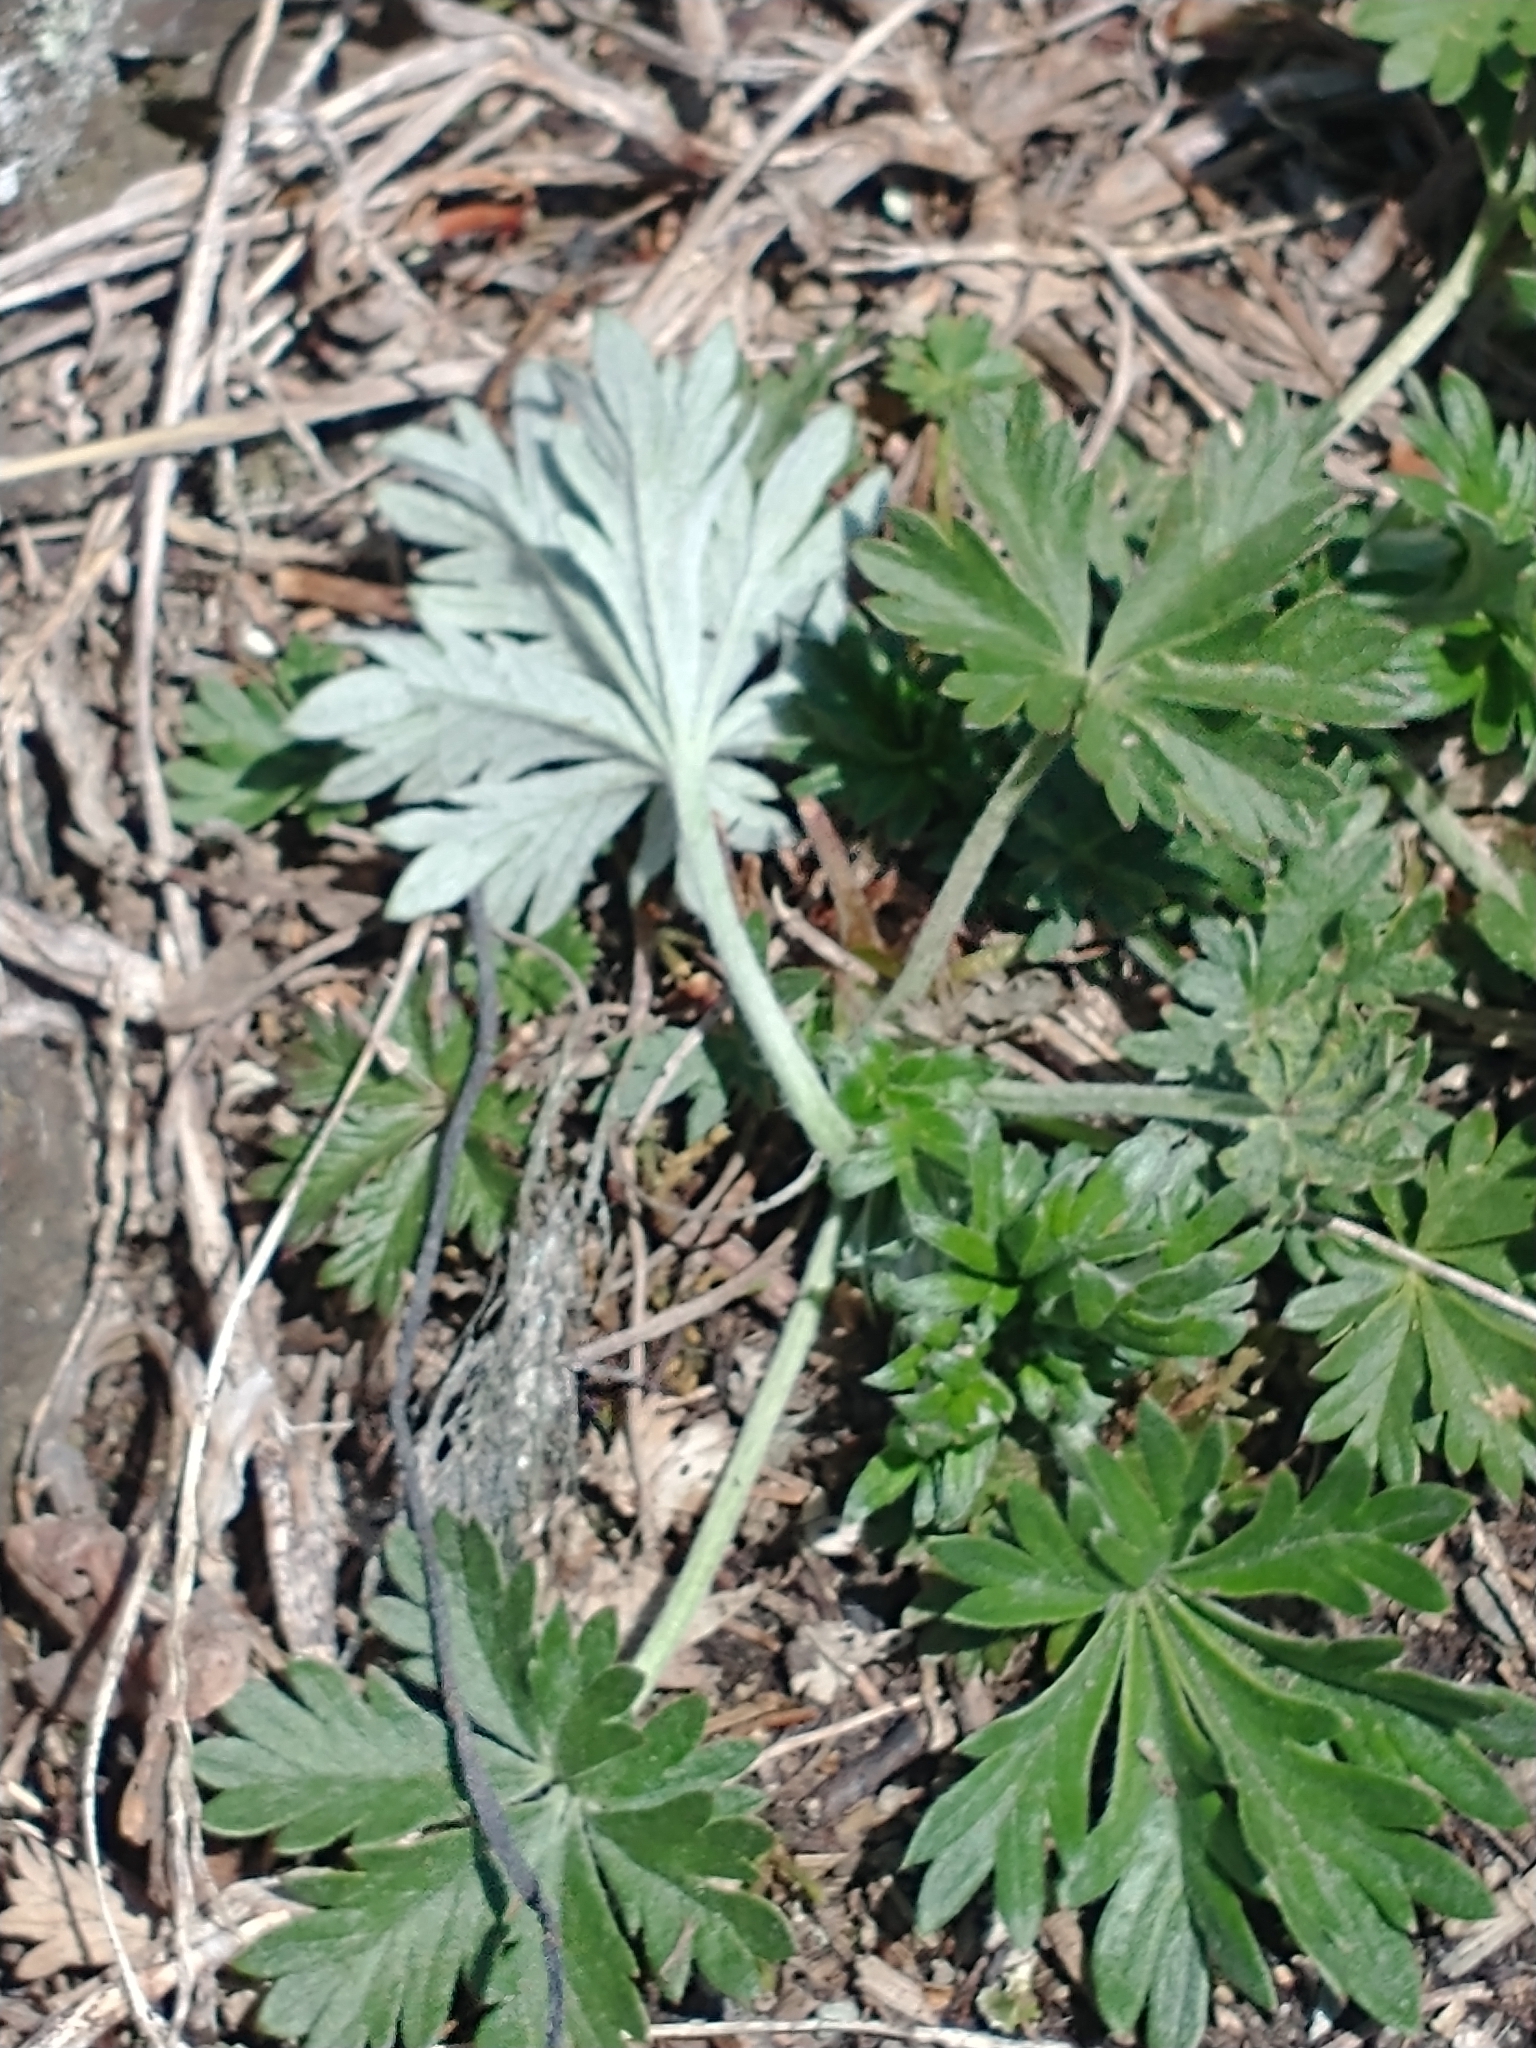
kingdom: Plantae
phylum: Tracheophyta
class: Magnoliopsida
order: Rosales
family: Rosaceae
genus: Potentilla
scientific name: Potentilla argentea
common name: Hoary cinquefoil
